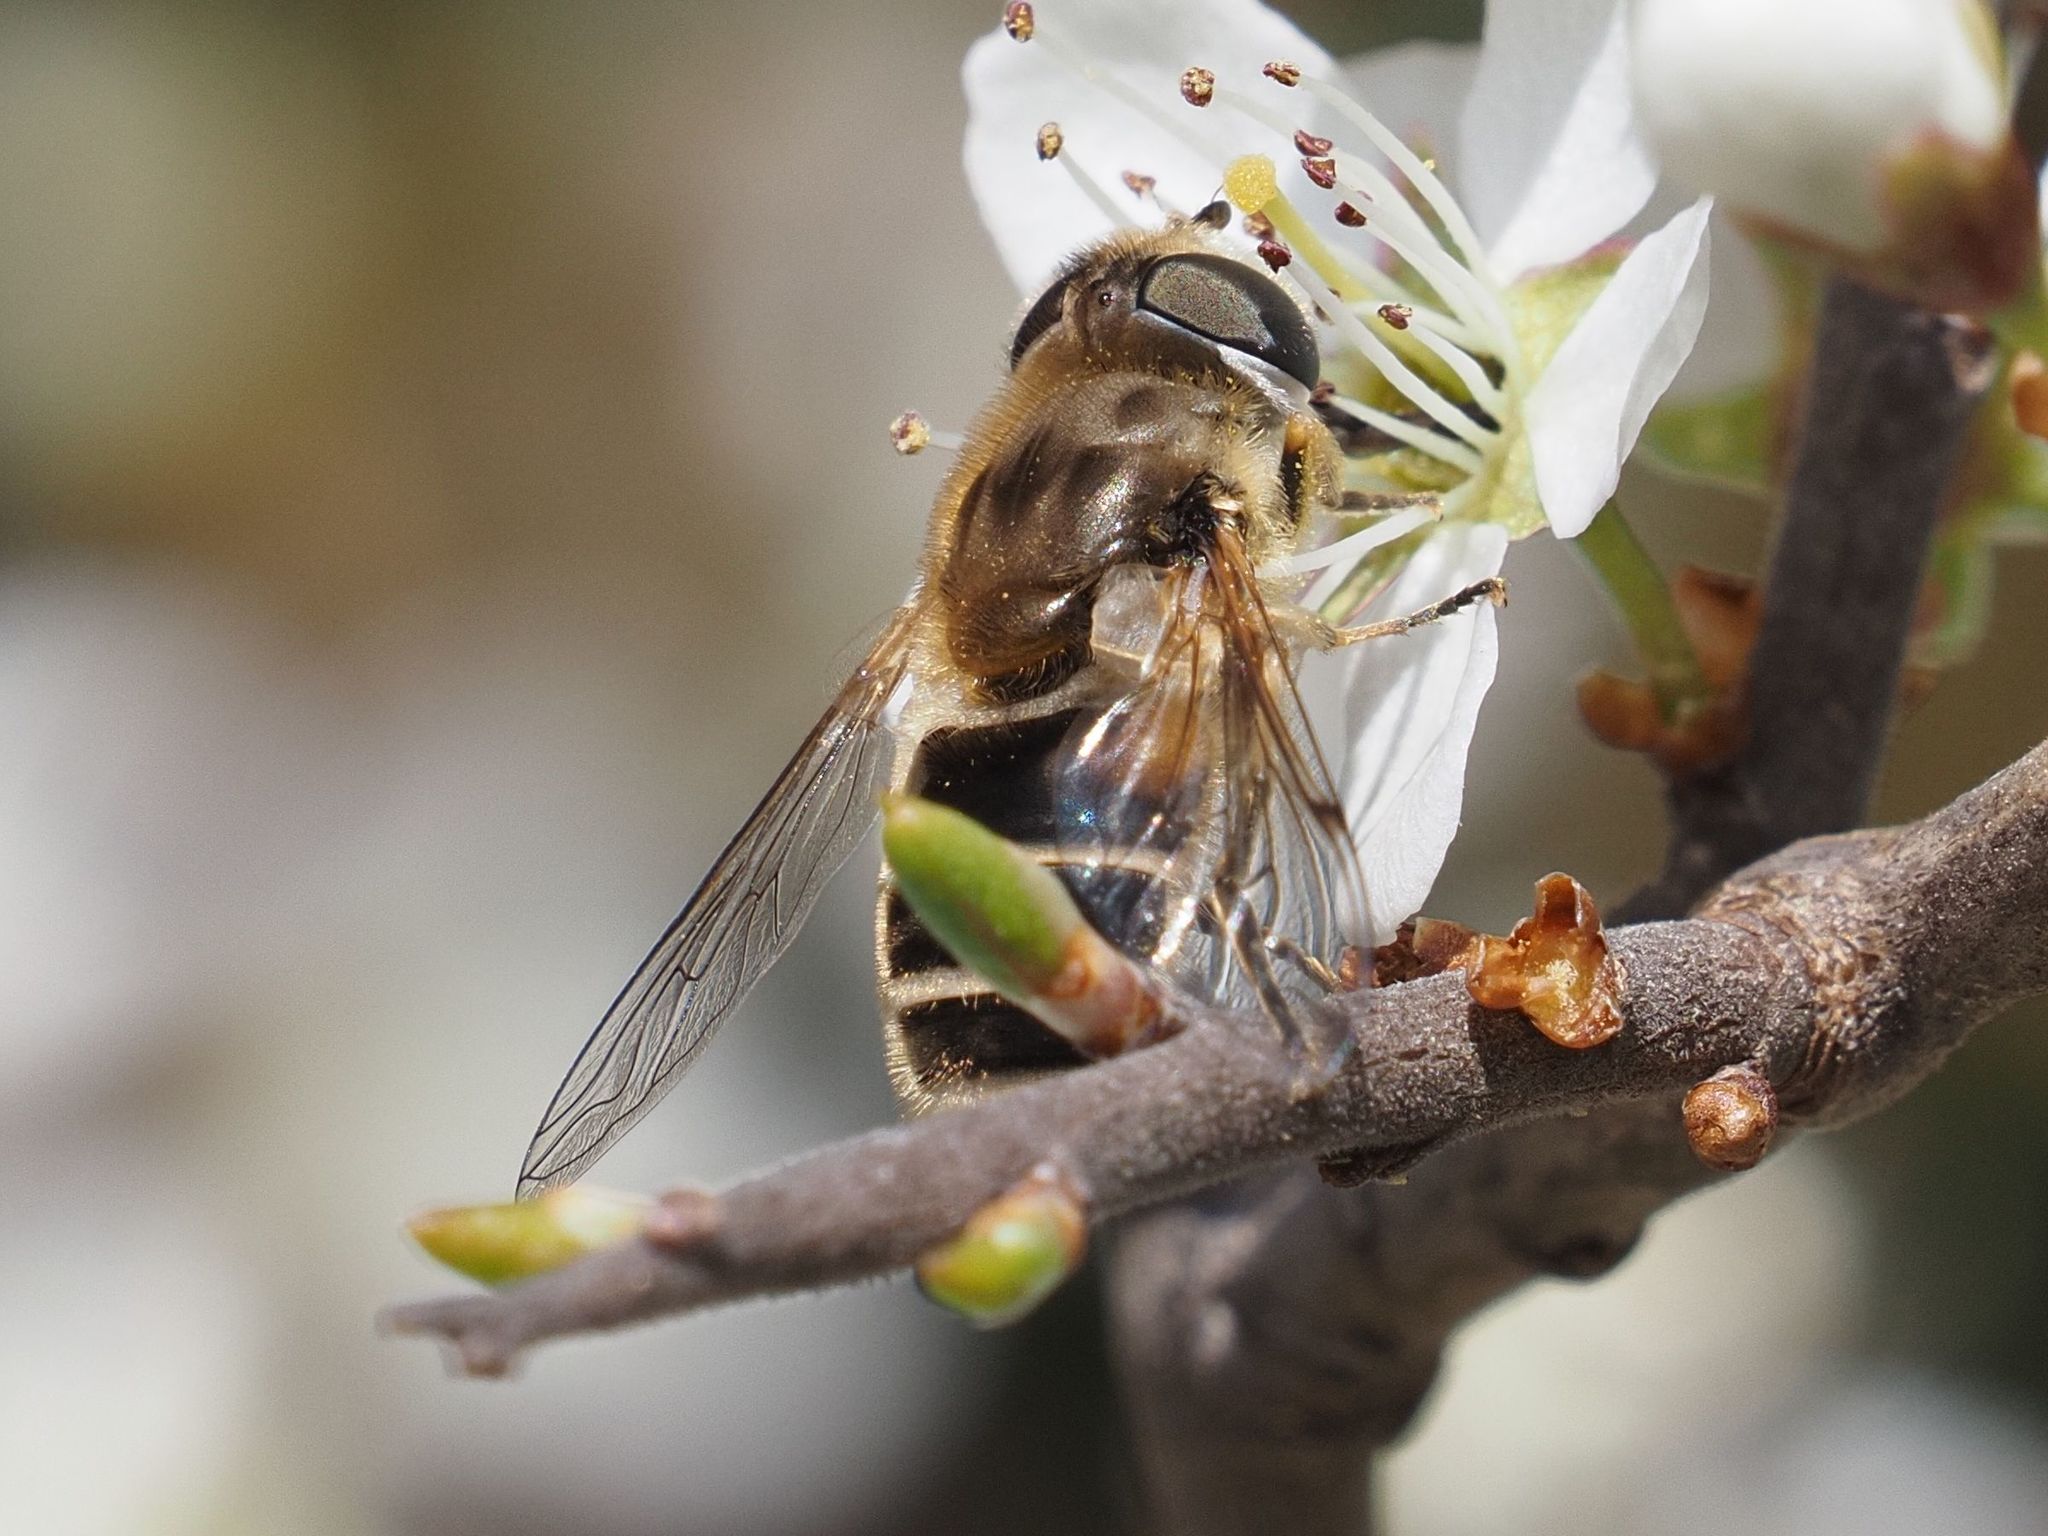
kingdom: Animalia
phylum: Arthropoda
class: Insecta
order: Diptera
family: Syrphidae
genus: Eristalis
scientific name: Eristalis arbustorum
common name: Hover fly
